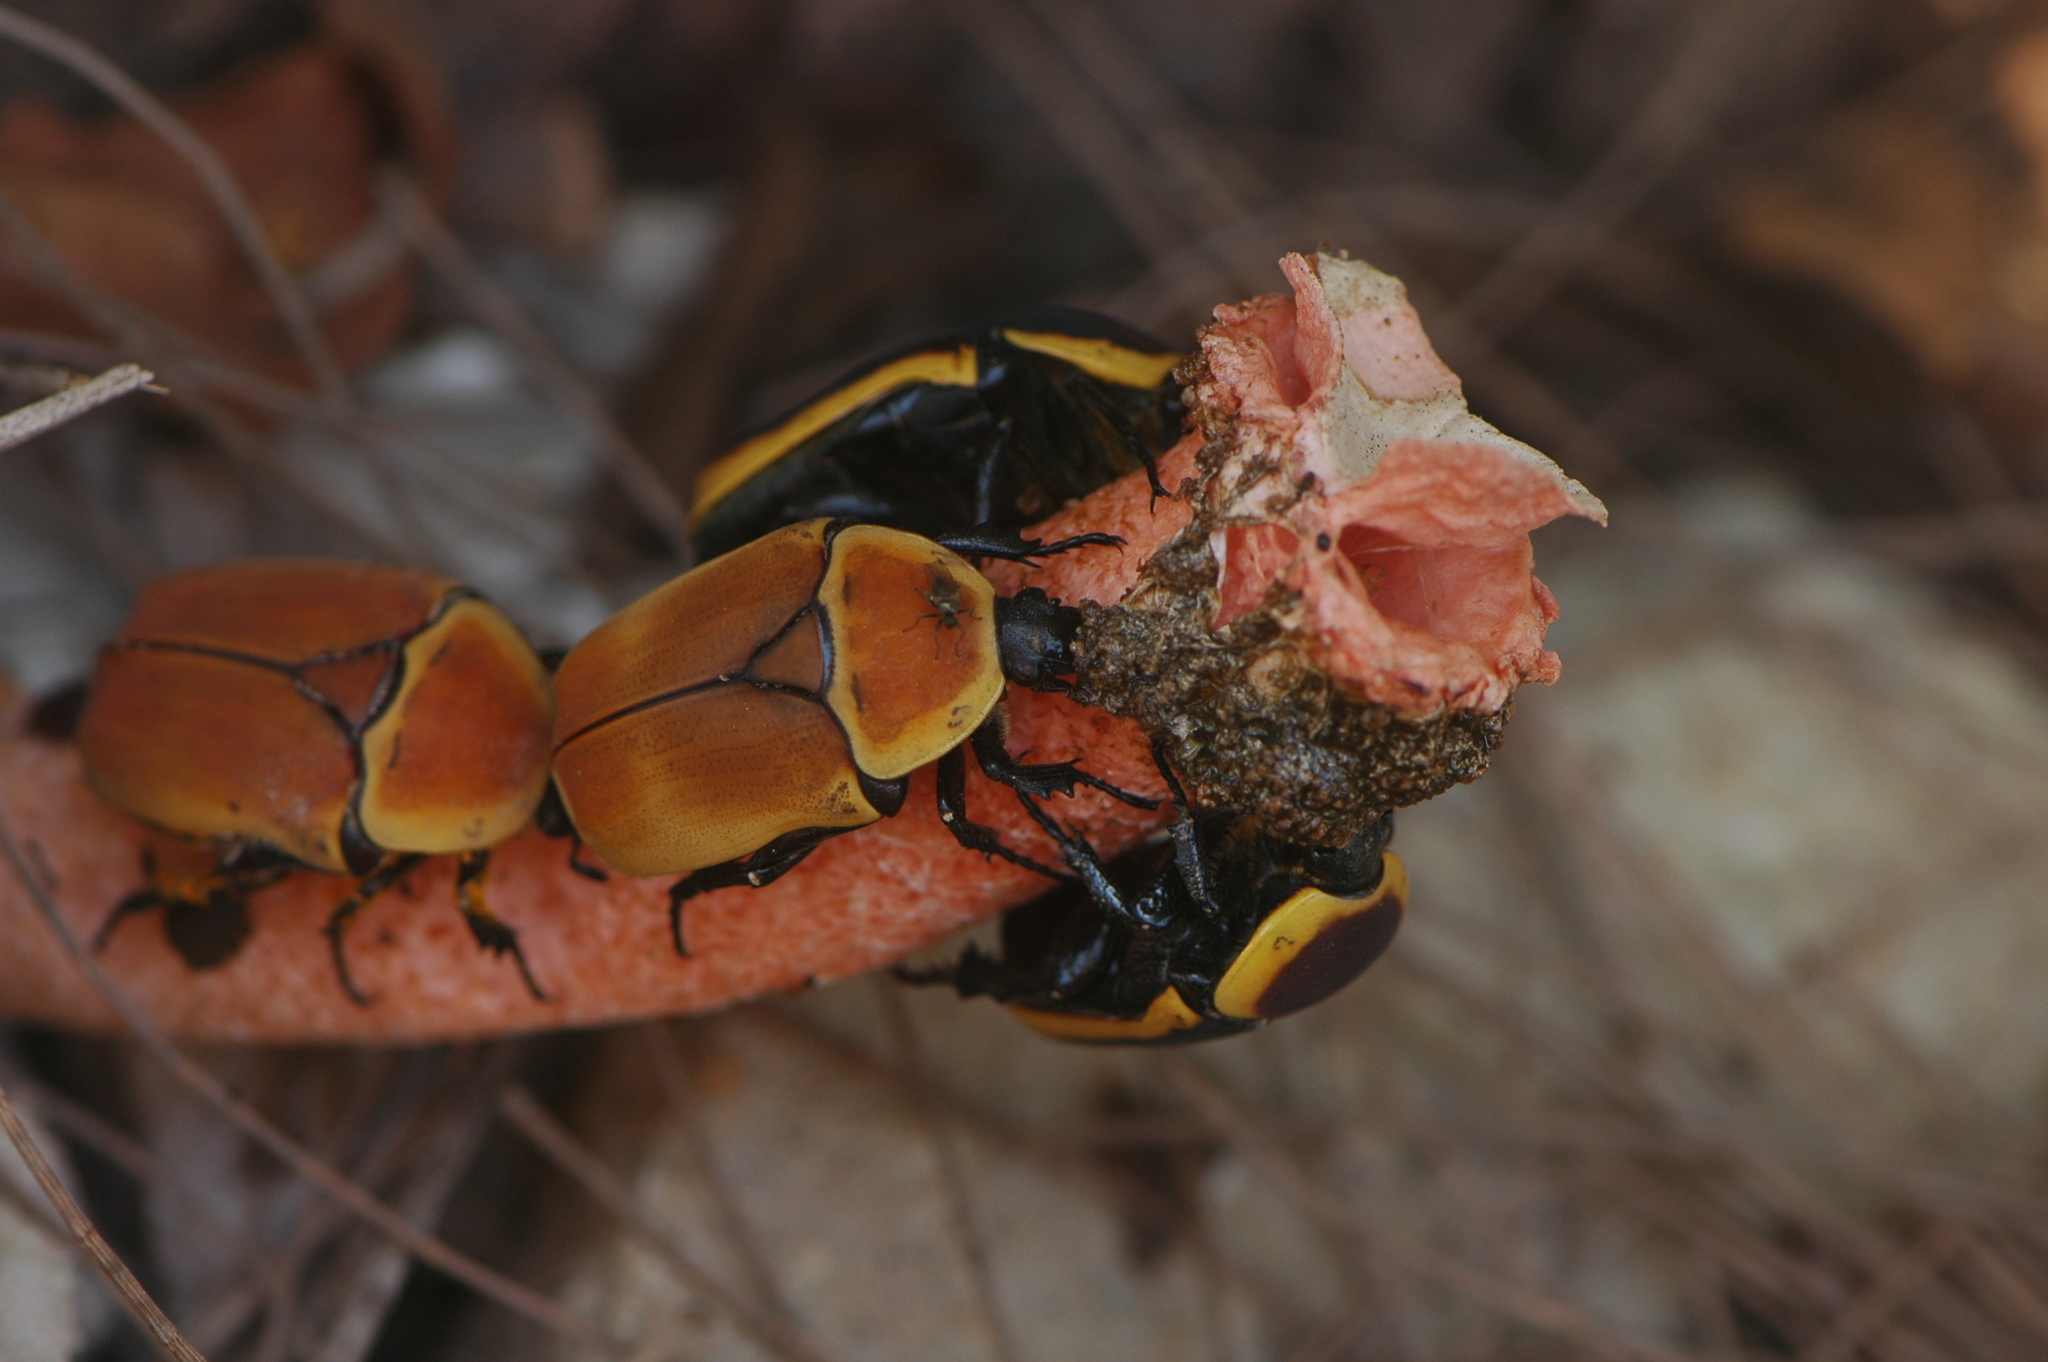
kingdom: Fungi
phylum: Basidiomycota
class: Agaricomycetes
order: Phallales
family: Phallaceae
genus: Phallus
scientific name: Phallus rubicundus
